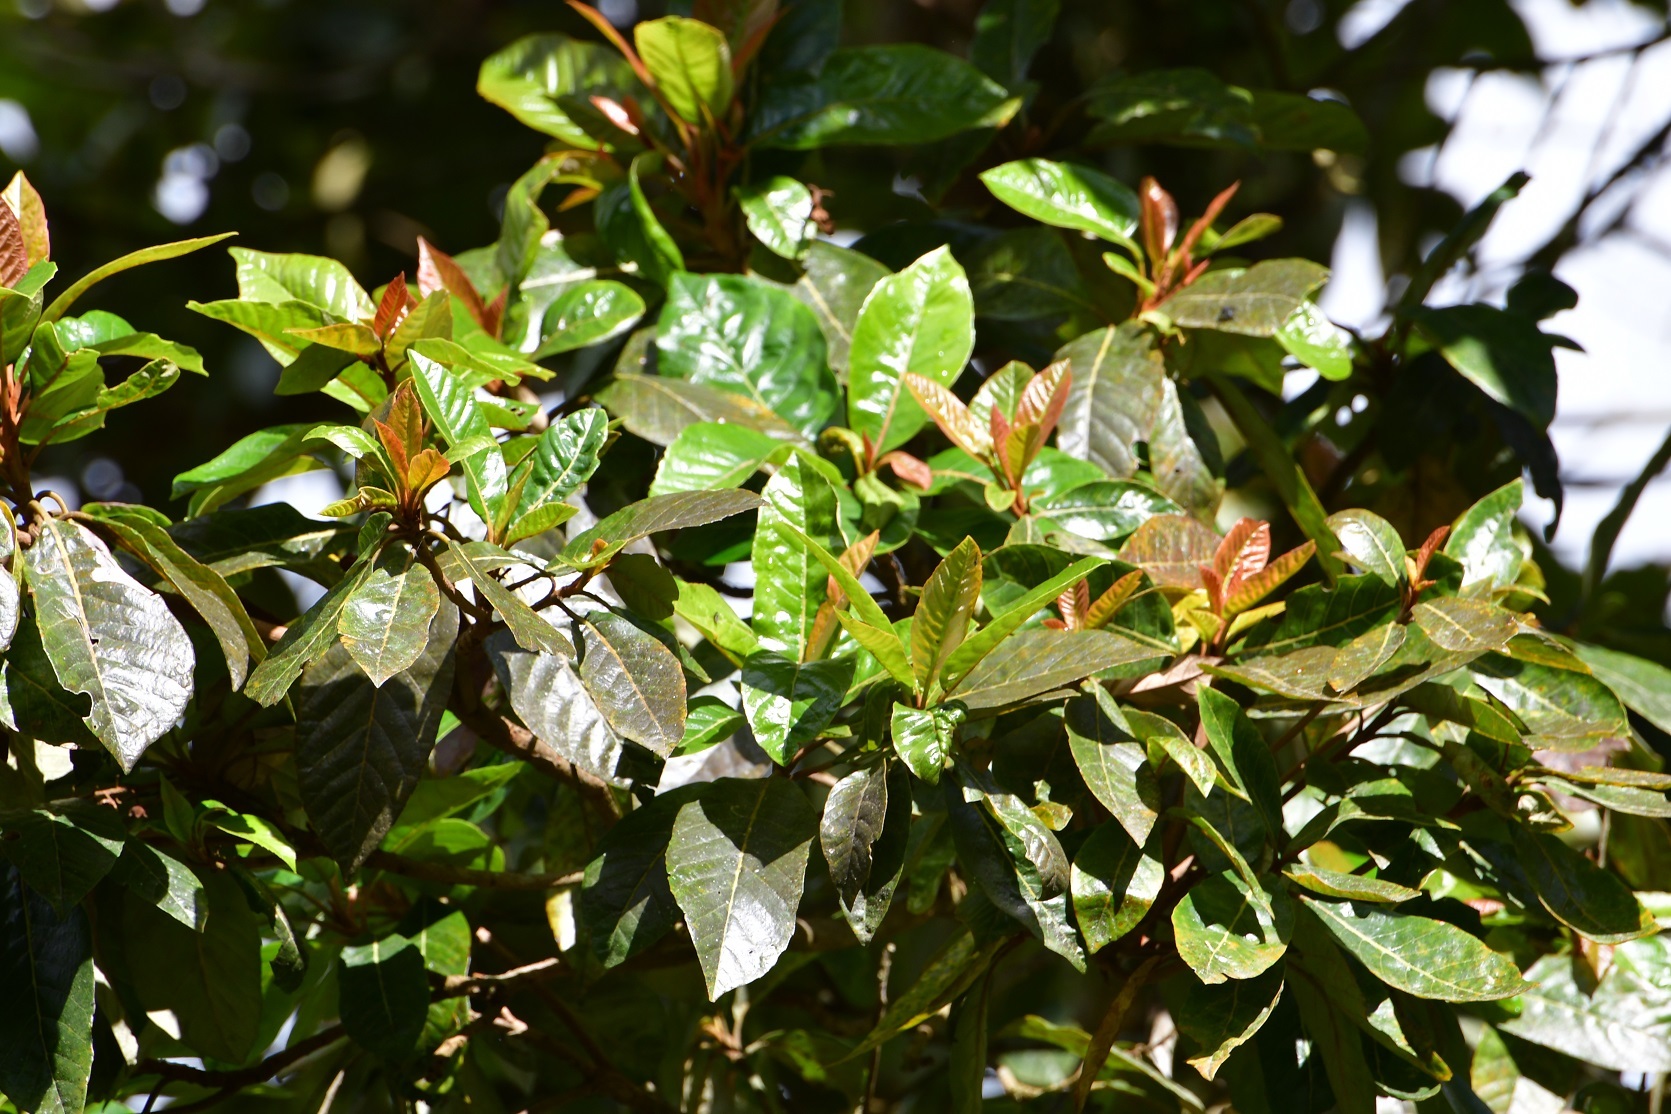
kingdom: Plantae
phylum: Tracheophyta
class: Magnoliopsida
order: Ericales
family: Clethraceae
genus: Clethra
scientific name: Clethra vicentina
